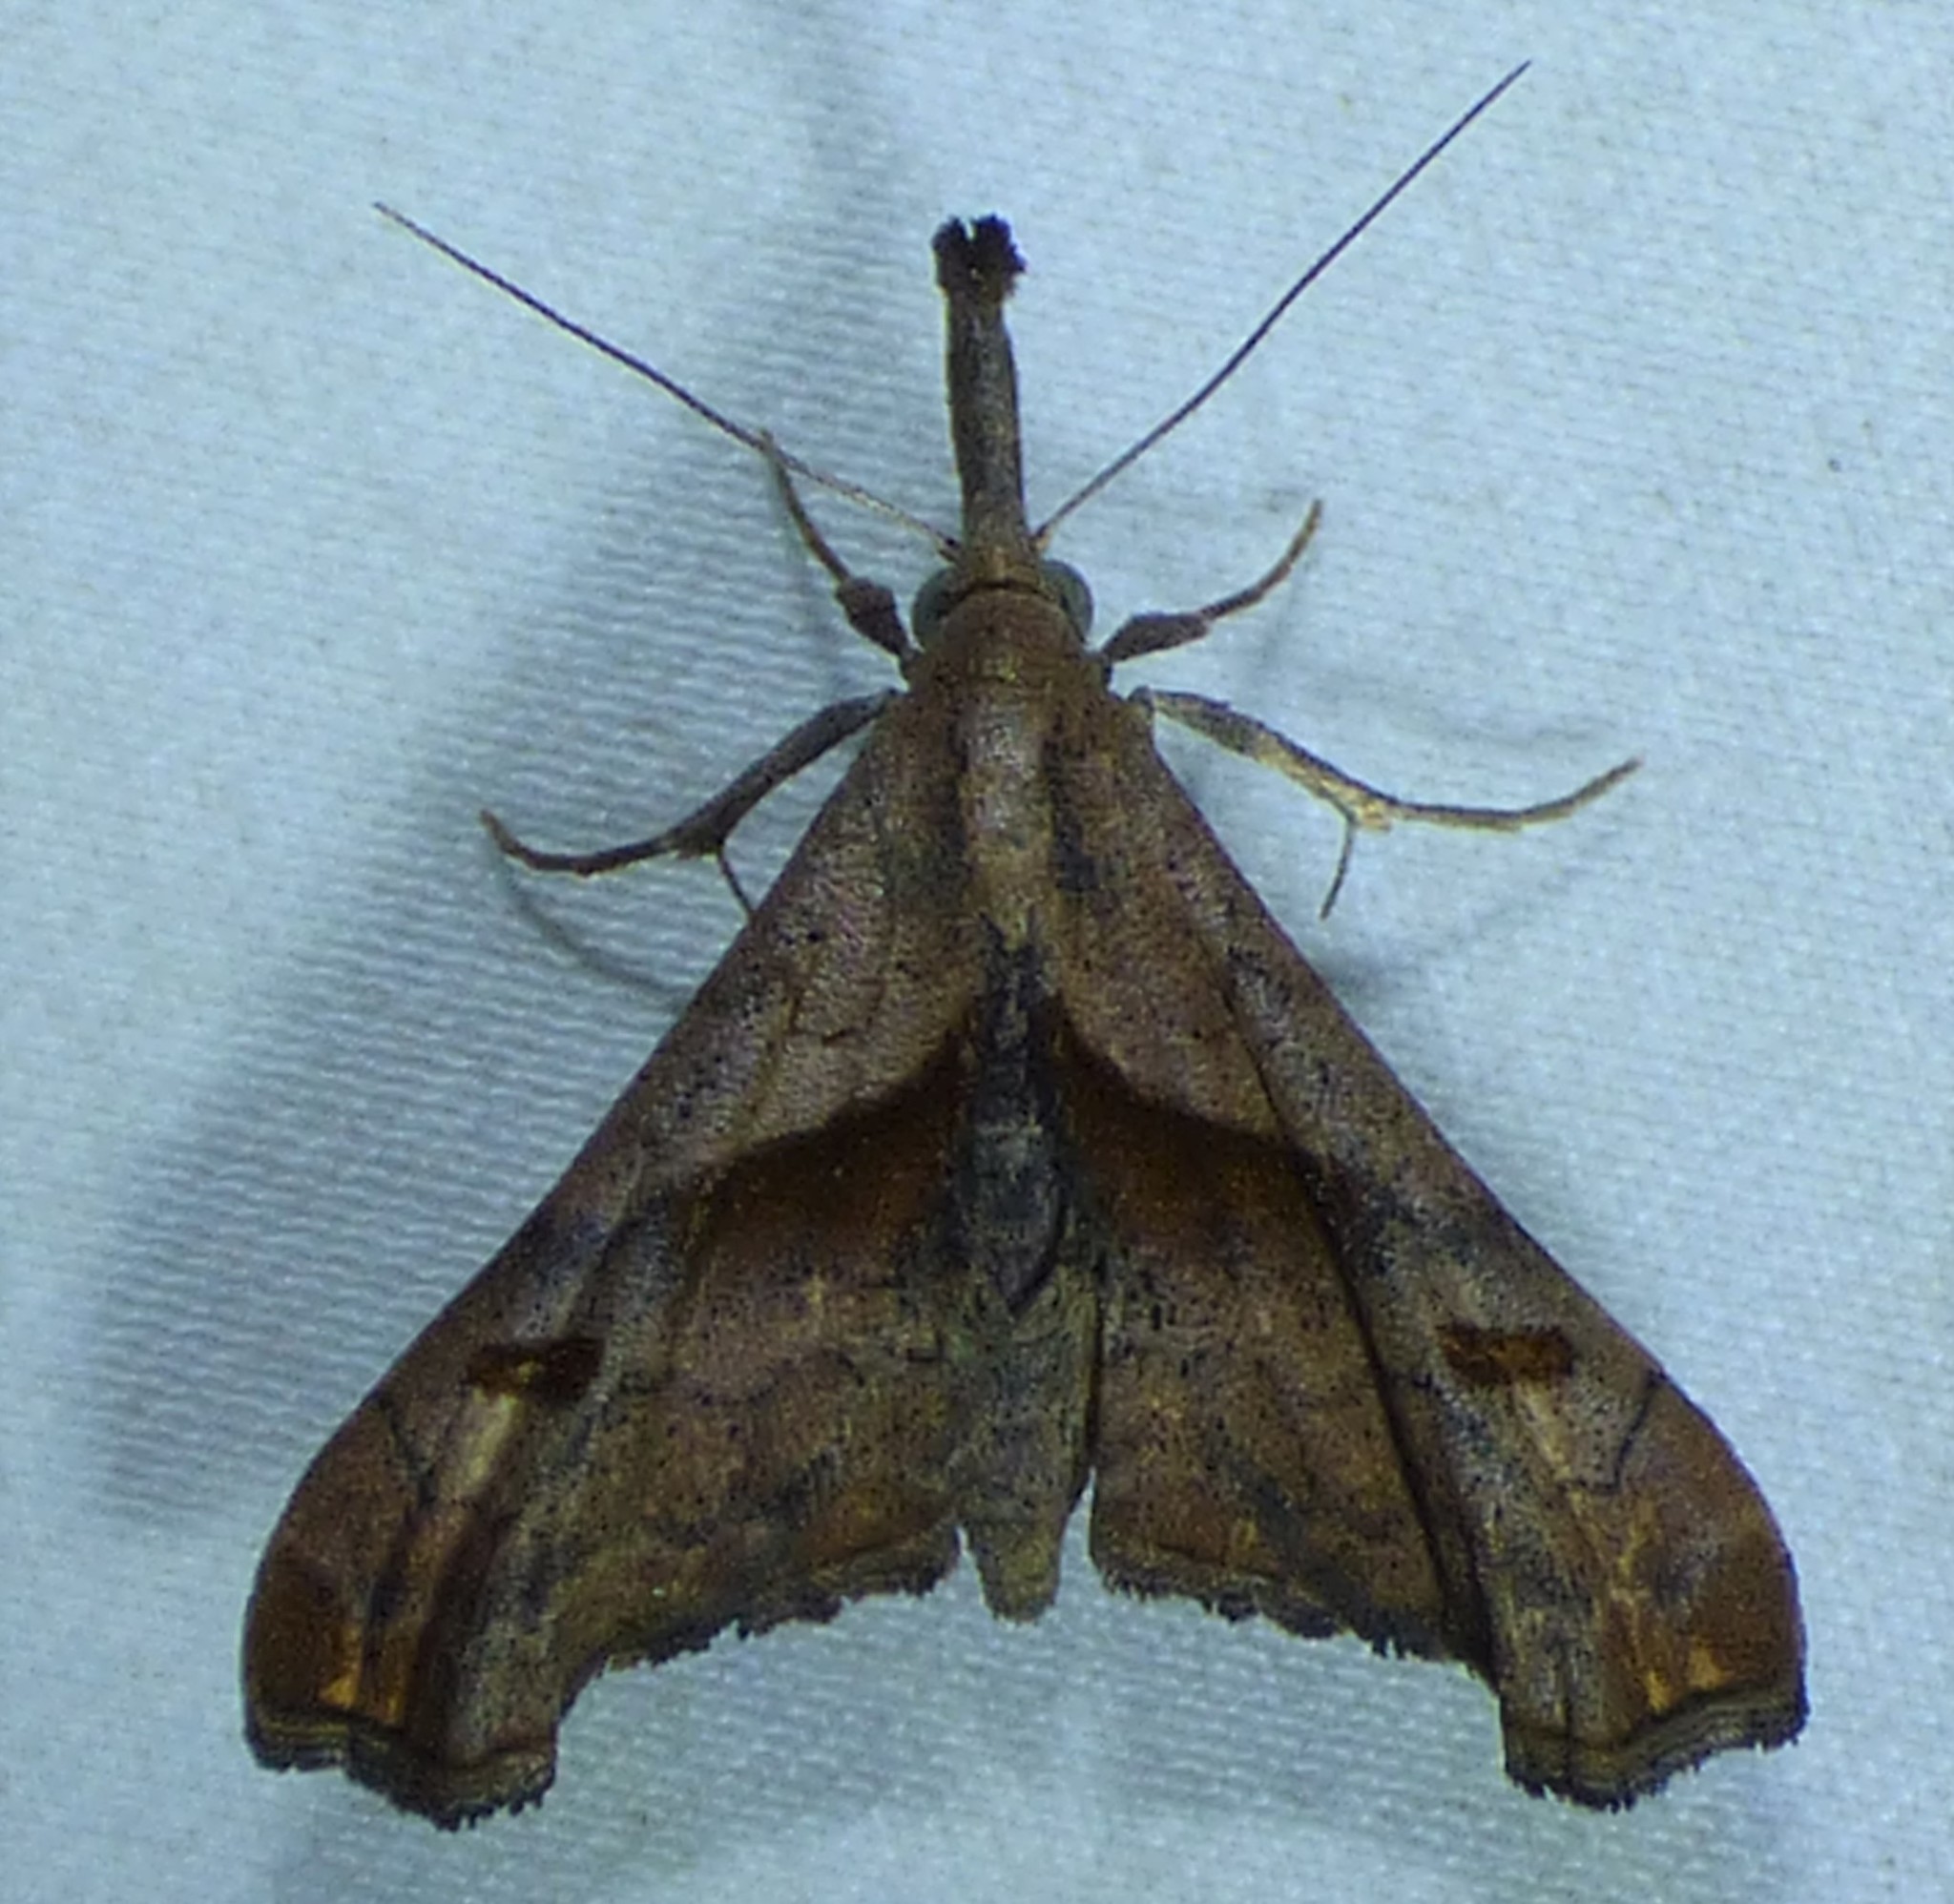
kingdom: Animalia
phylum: Arthropoda
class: Insecta
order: Lepidoptera
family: Erebidae
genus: Palthis
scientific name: Palthis angulalis
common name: Dark-spotted palthis moth
